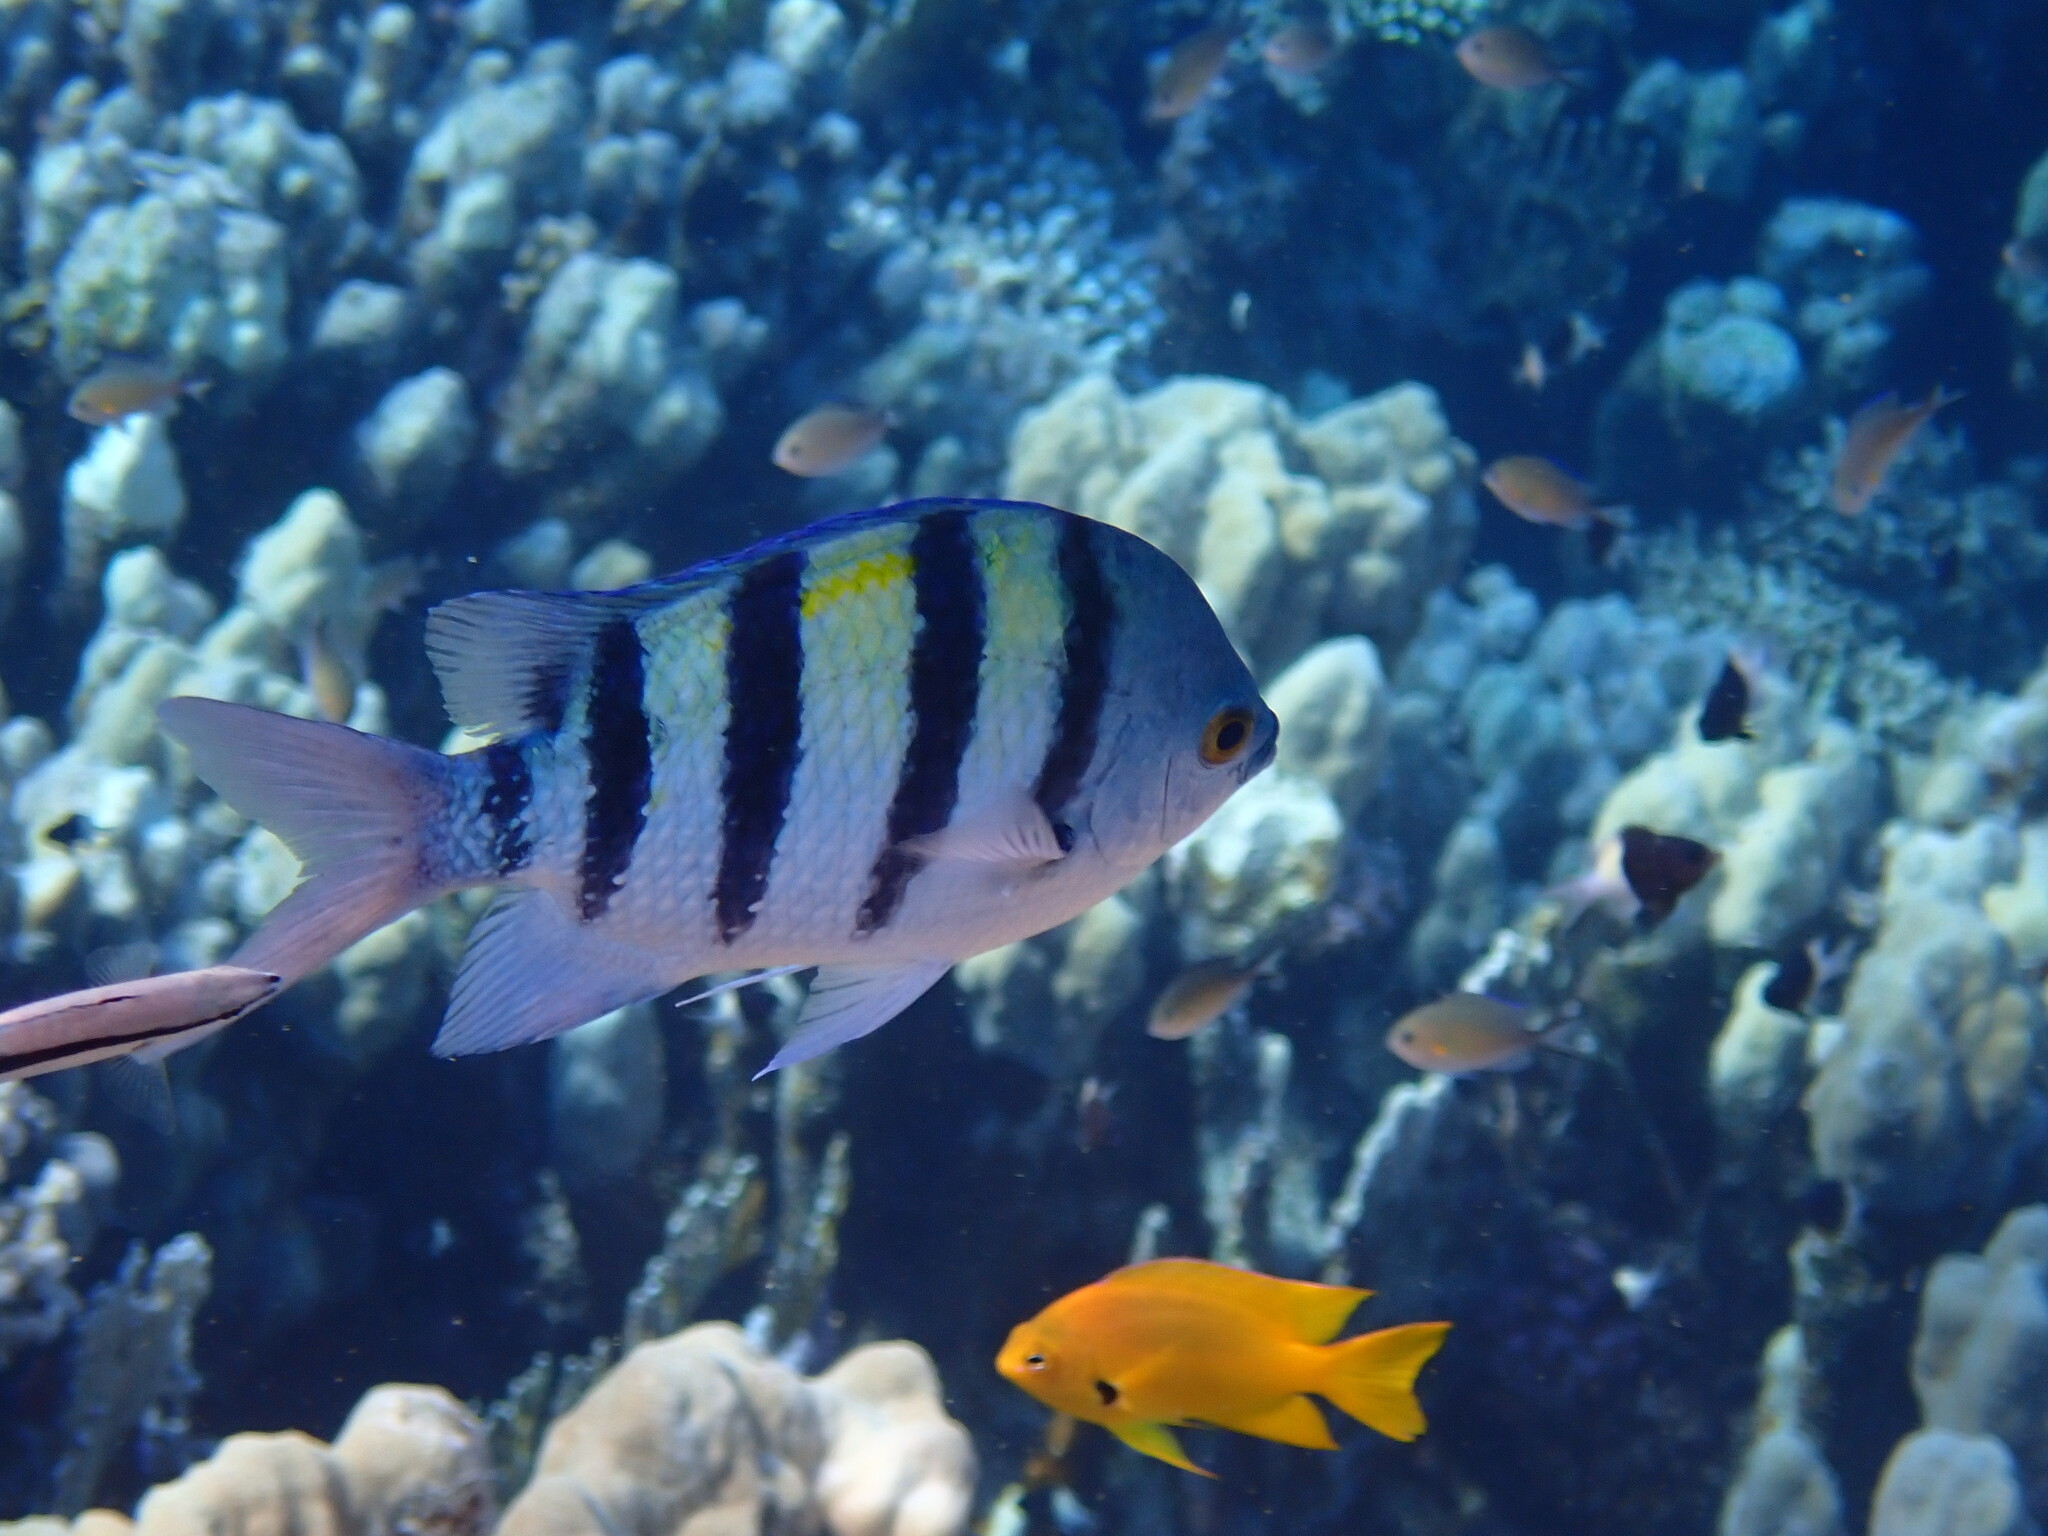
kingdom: Animalia
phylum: Chordata
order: Perciformes
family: Pomacentridae
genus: Abudefduf
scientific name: Abudefduf vaigiensis
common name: Indo-pacific sergeant
